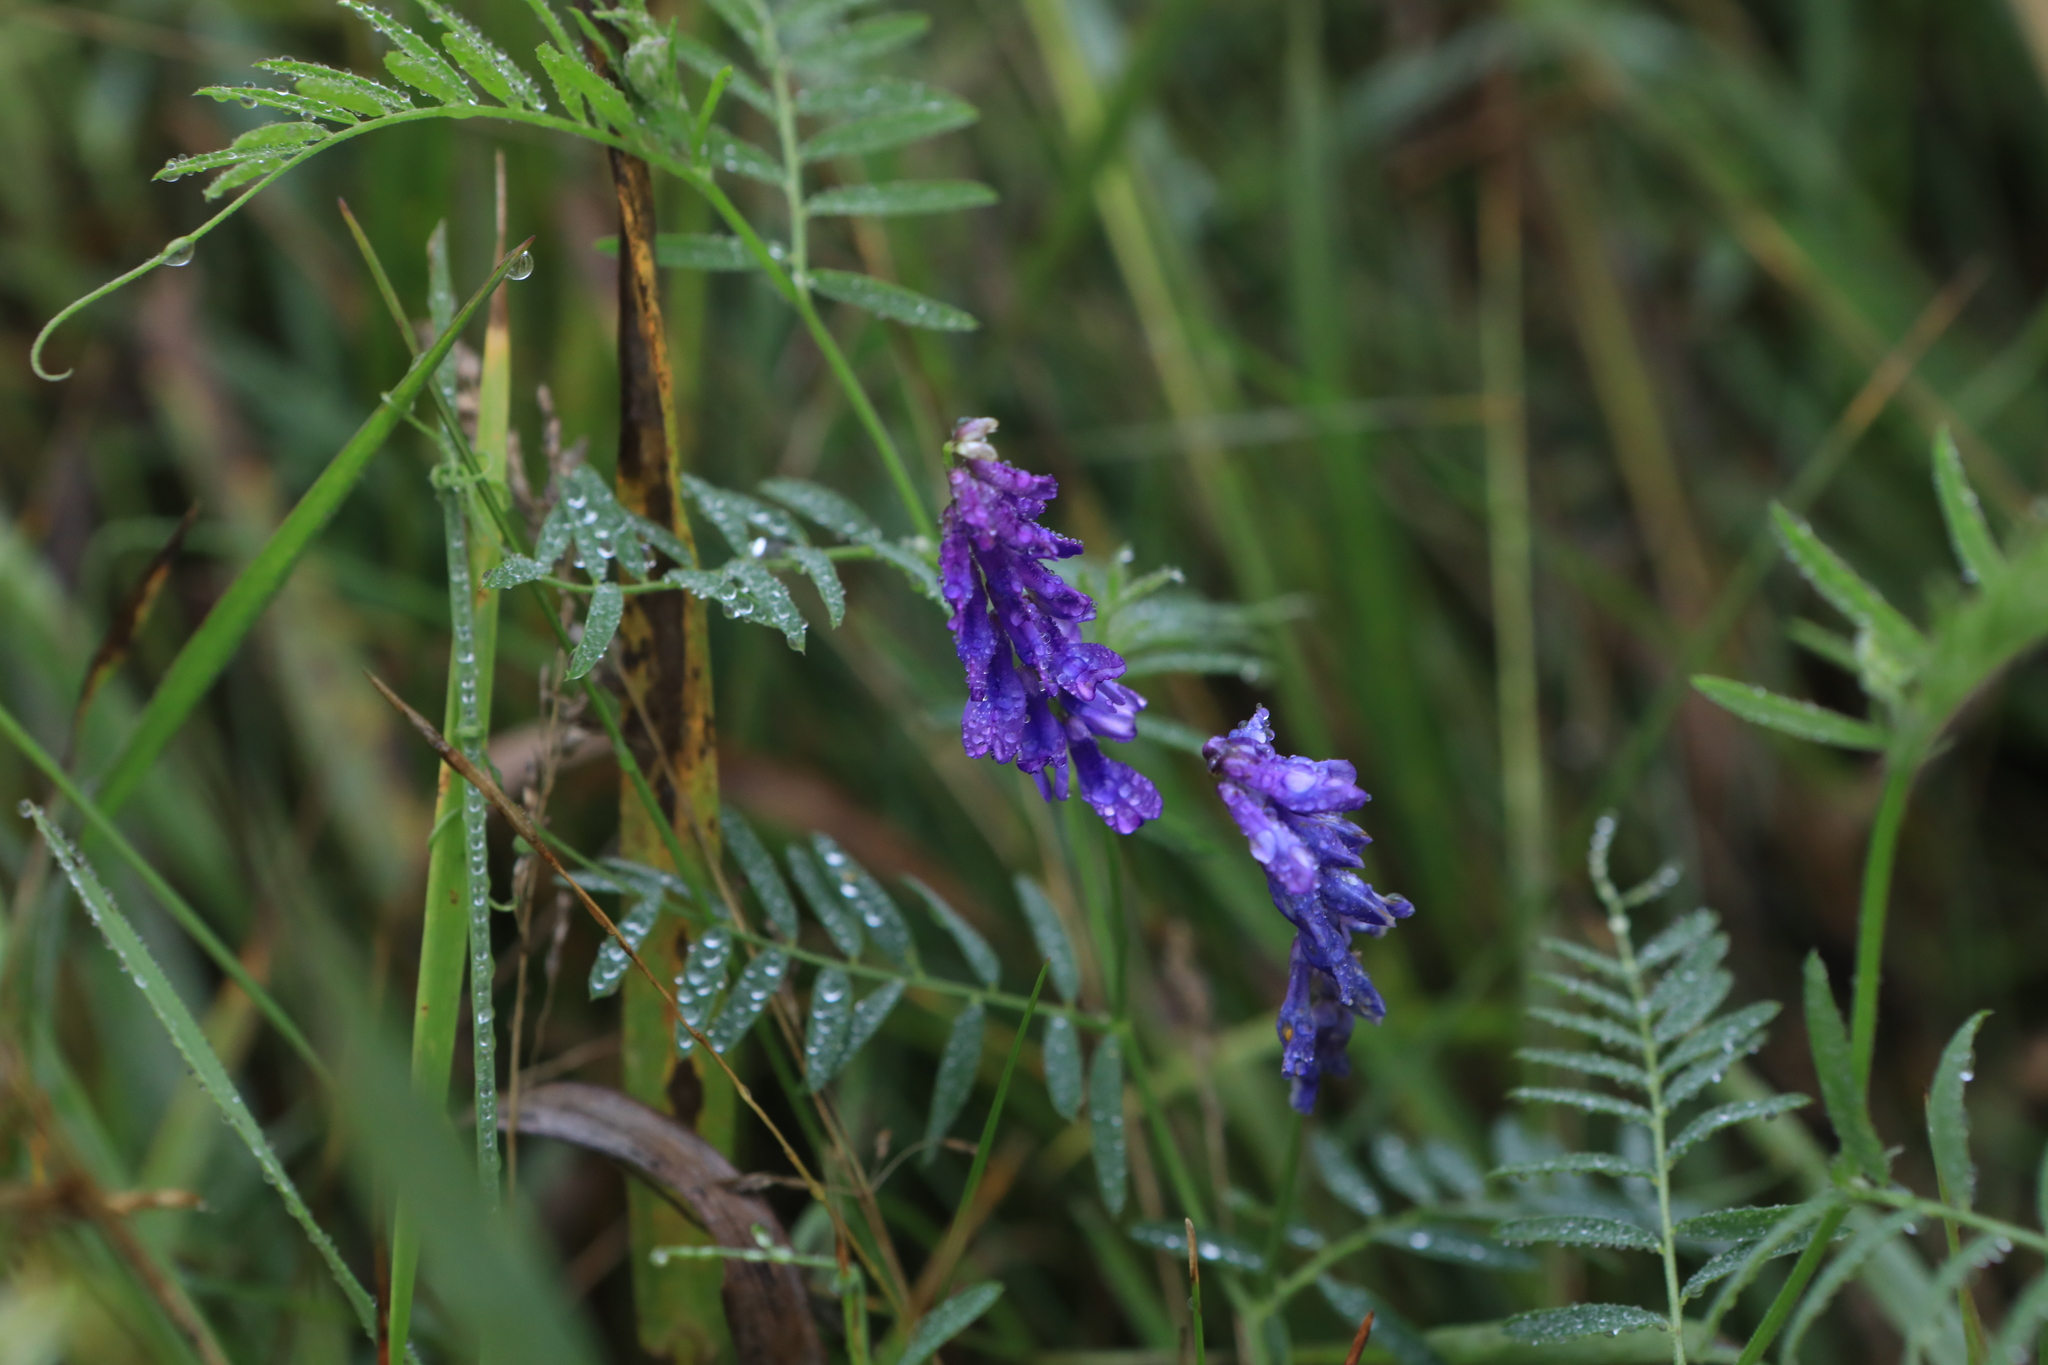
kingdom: Plantae
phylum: Tracheophyta
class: Magnoliopsida
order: Fabales
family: Fabaceae
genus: Vicia
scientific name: Vicia cracca
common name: Bird vetch
